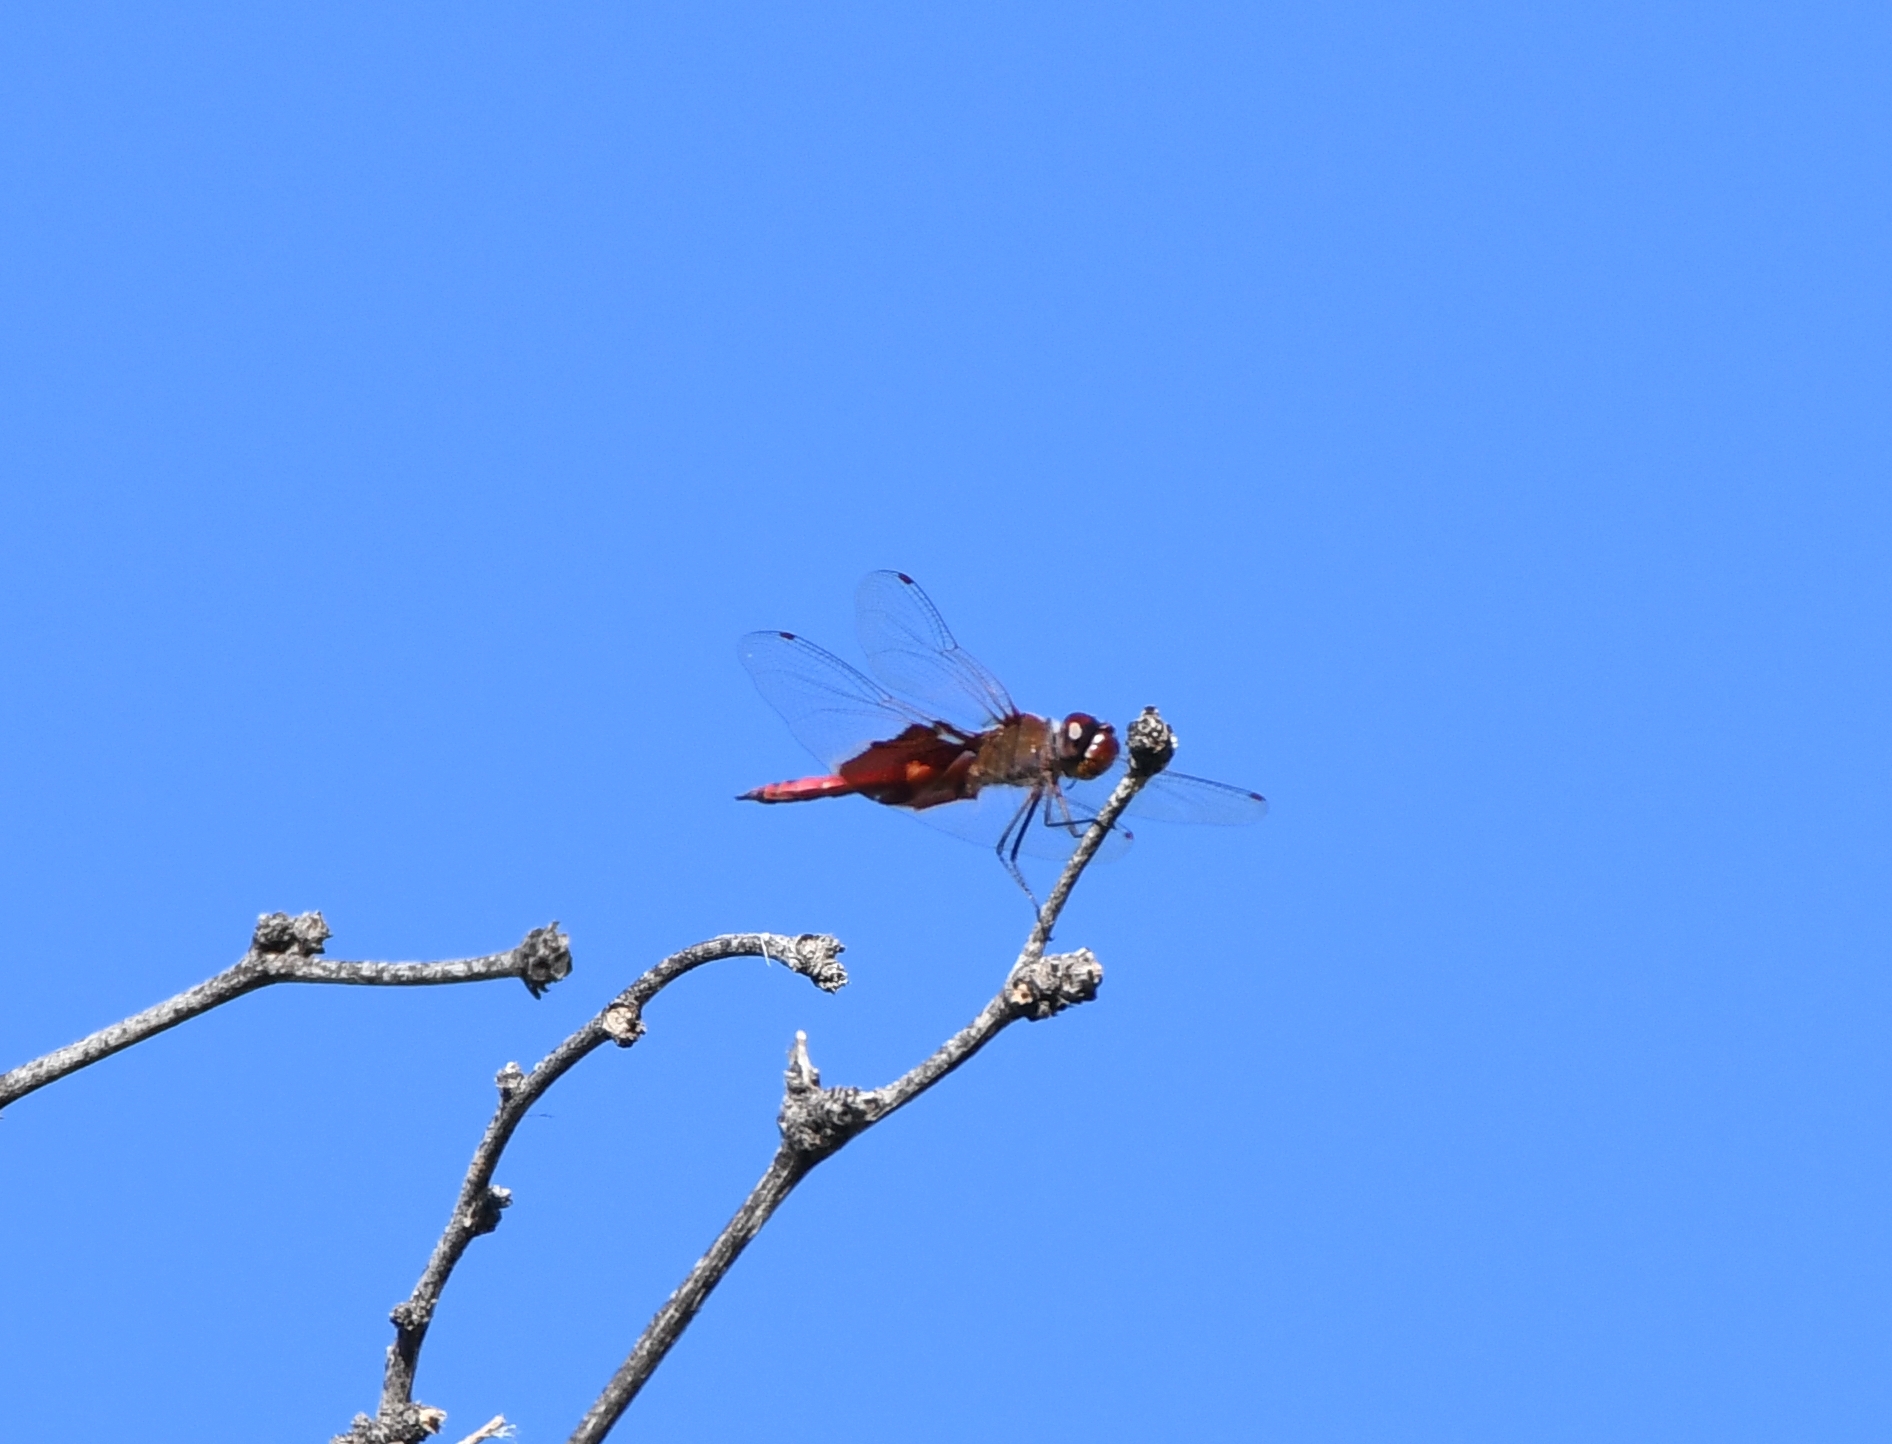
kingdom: Animalia
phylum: Arthropoda
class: Insecta
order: Odonata
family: Libellulidae
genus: Tramea
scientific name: Tramea onusta
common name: Red saddlebags
